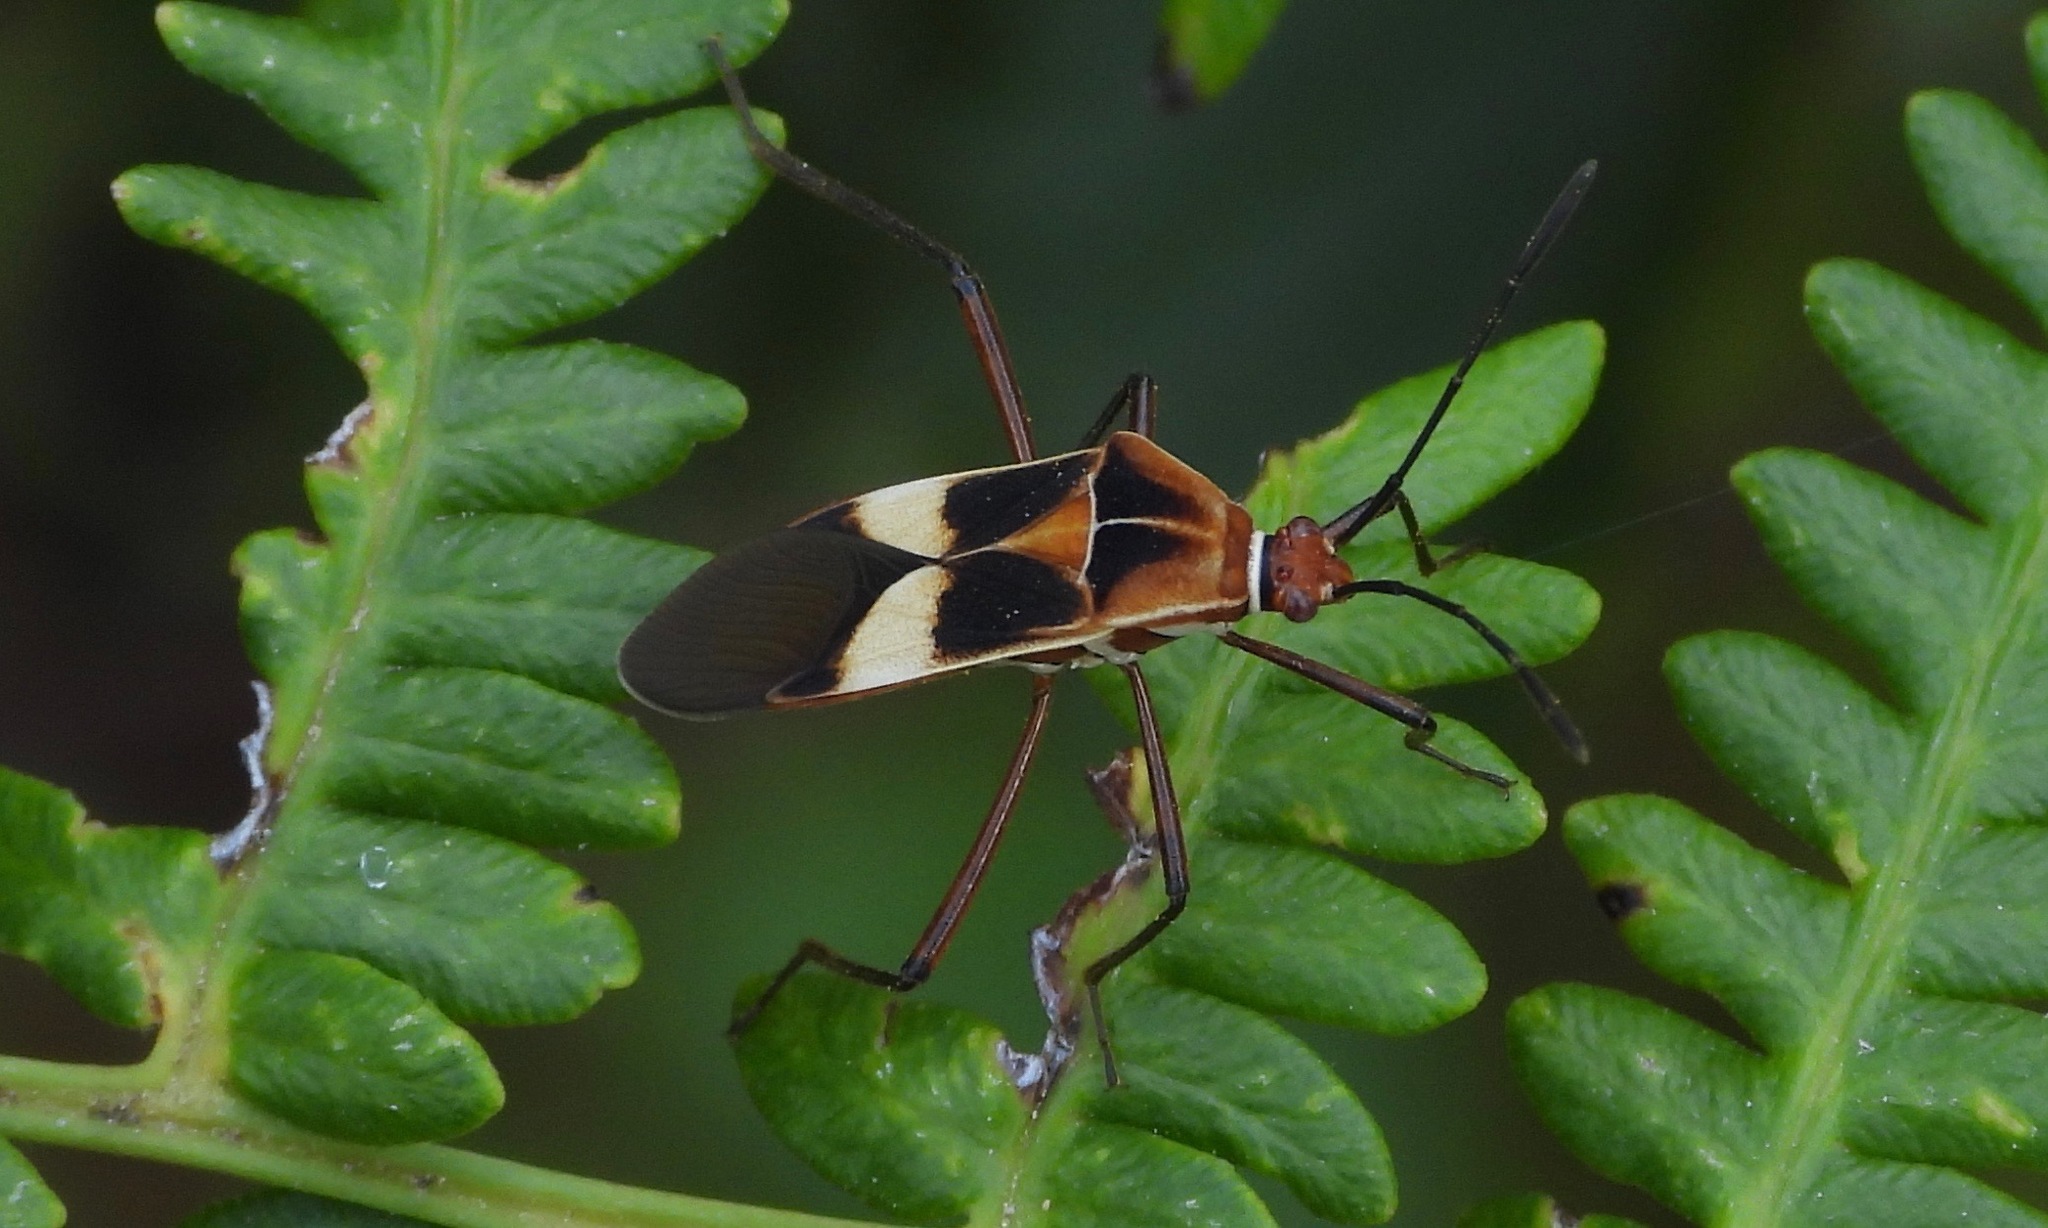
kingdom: Animalia
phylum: Arthropoda
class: Insecta
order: Hemiptera
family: Coreidae
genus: Hypselonotus
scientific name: Hypselonotus interruptus
